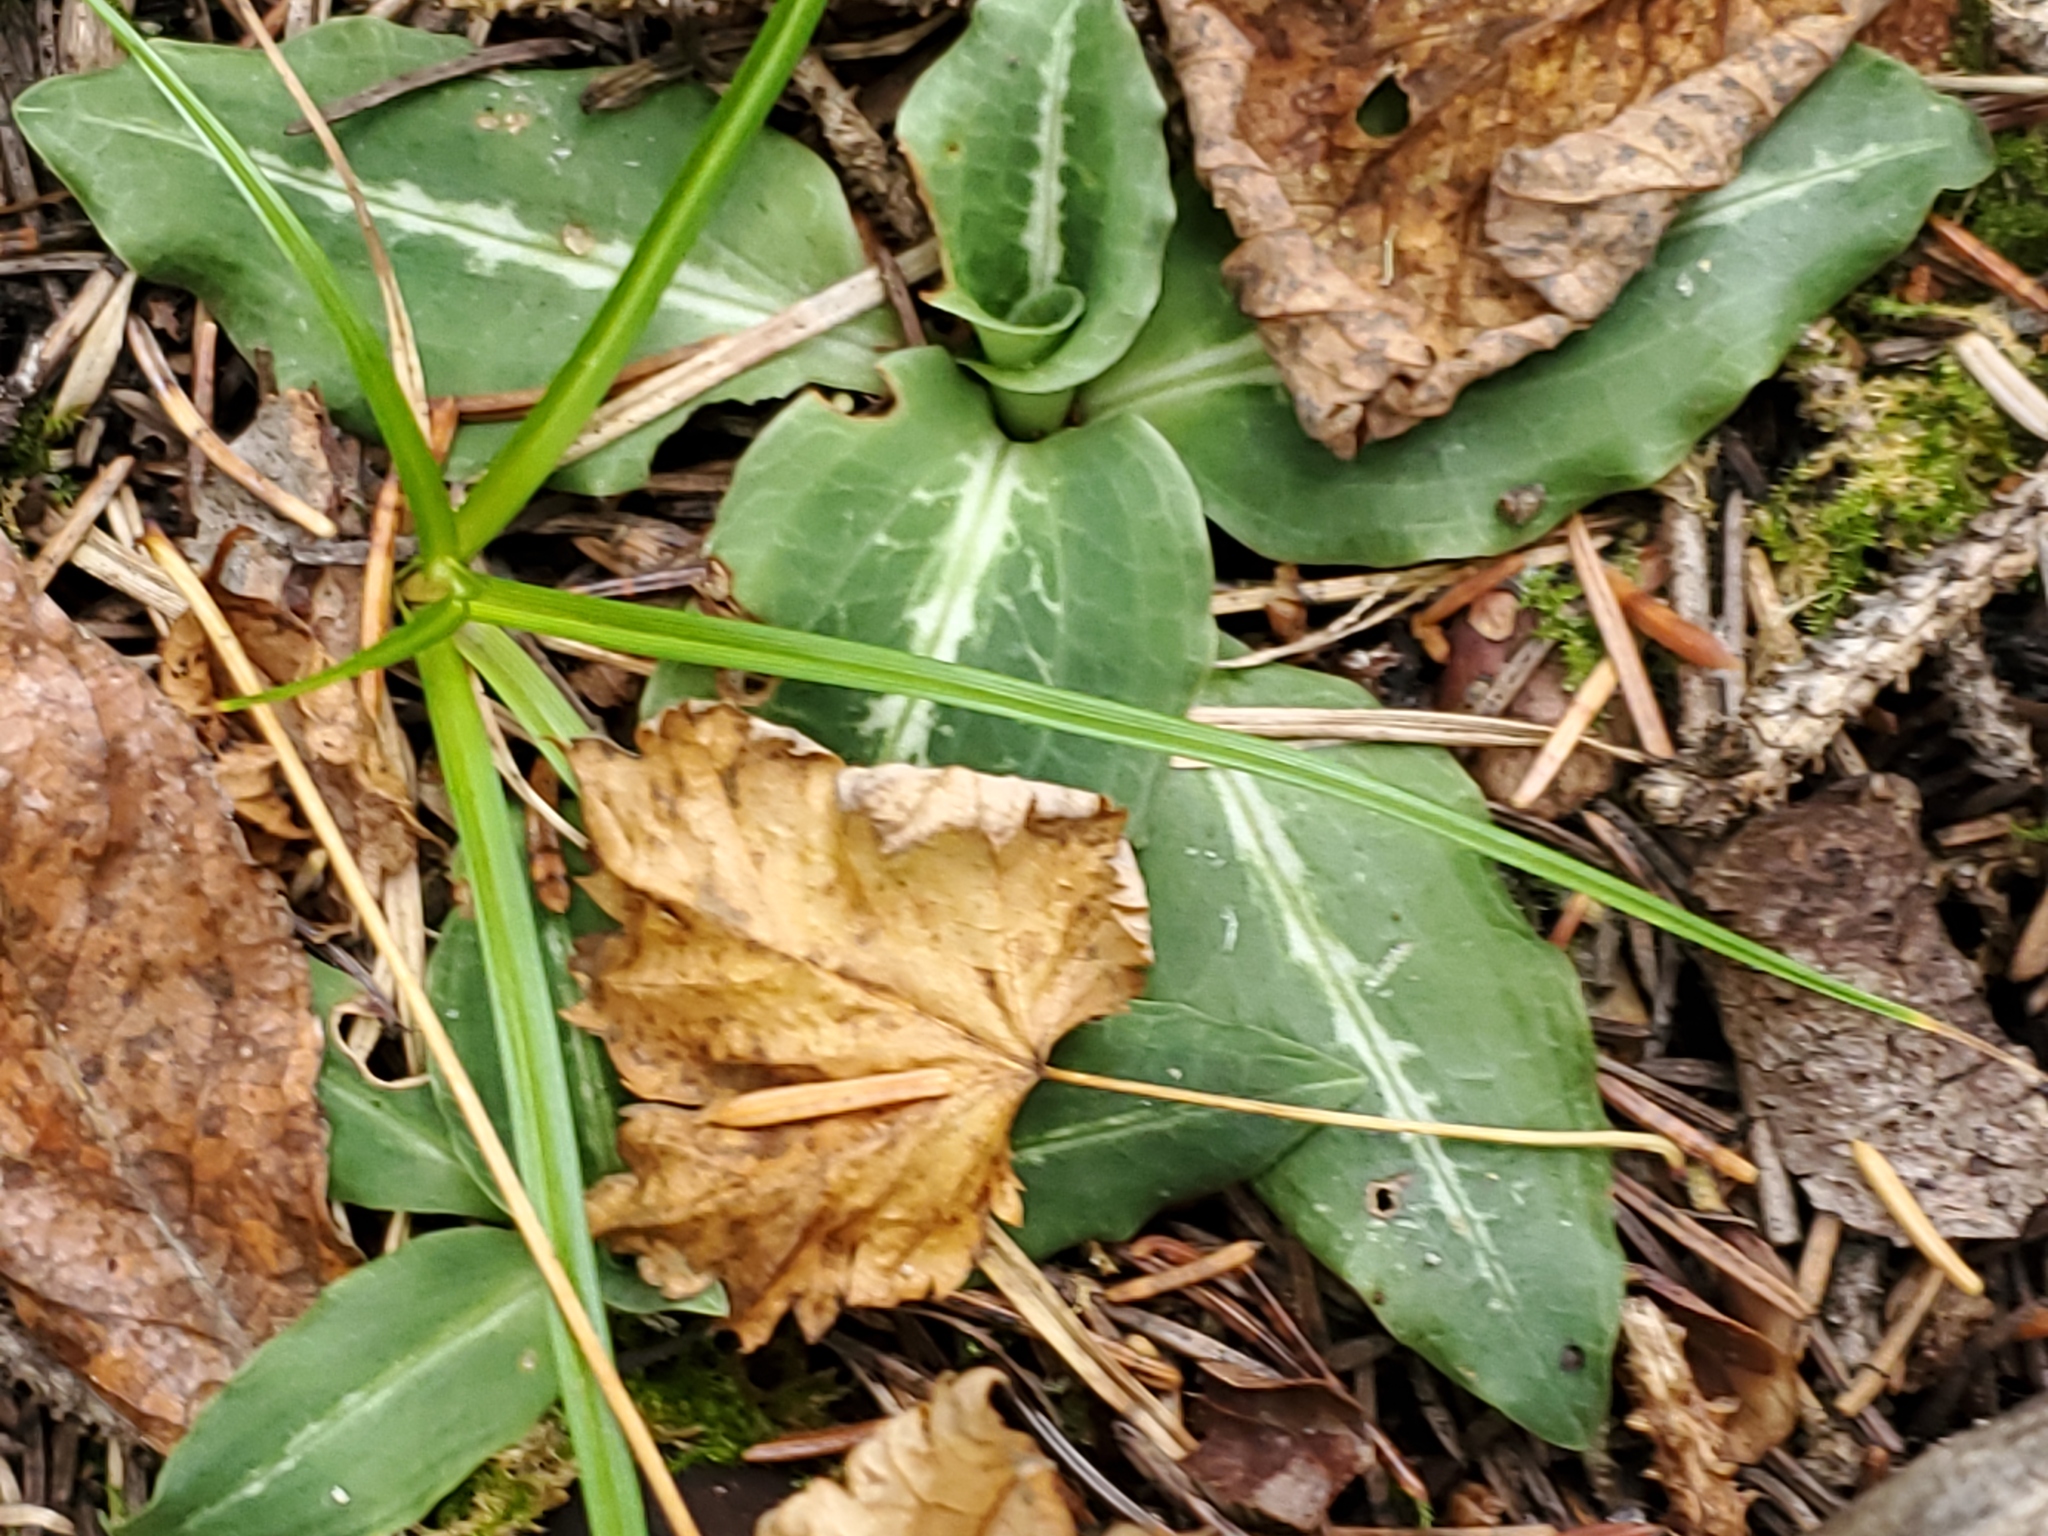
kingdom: Plantae
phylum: Tracheophyta
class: Liliopsida
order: Asparagales
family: Orchidaceae
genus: Goodyera
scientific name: Goodyera oblongifolia
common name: Giant rattlesnake-plantain
